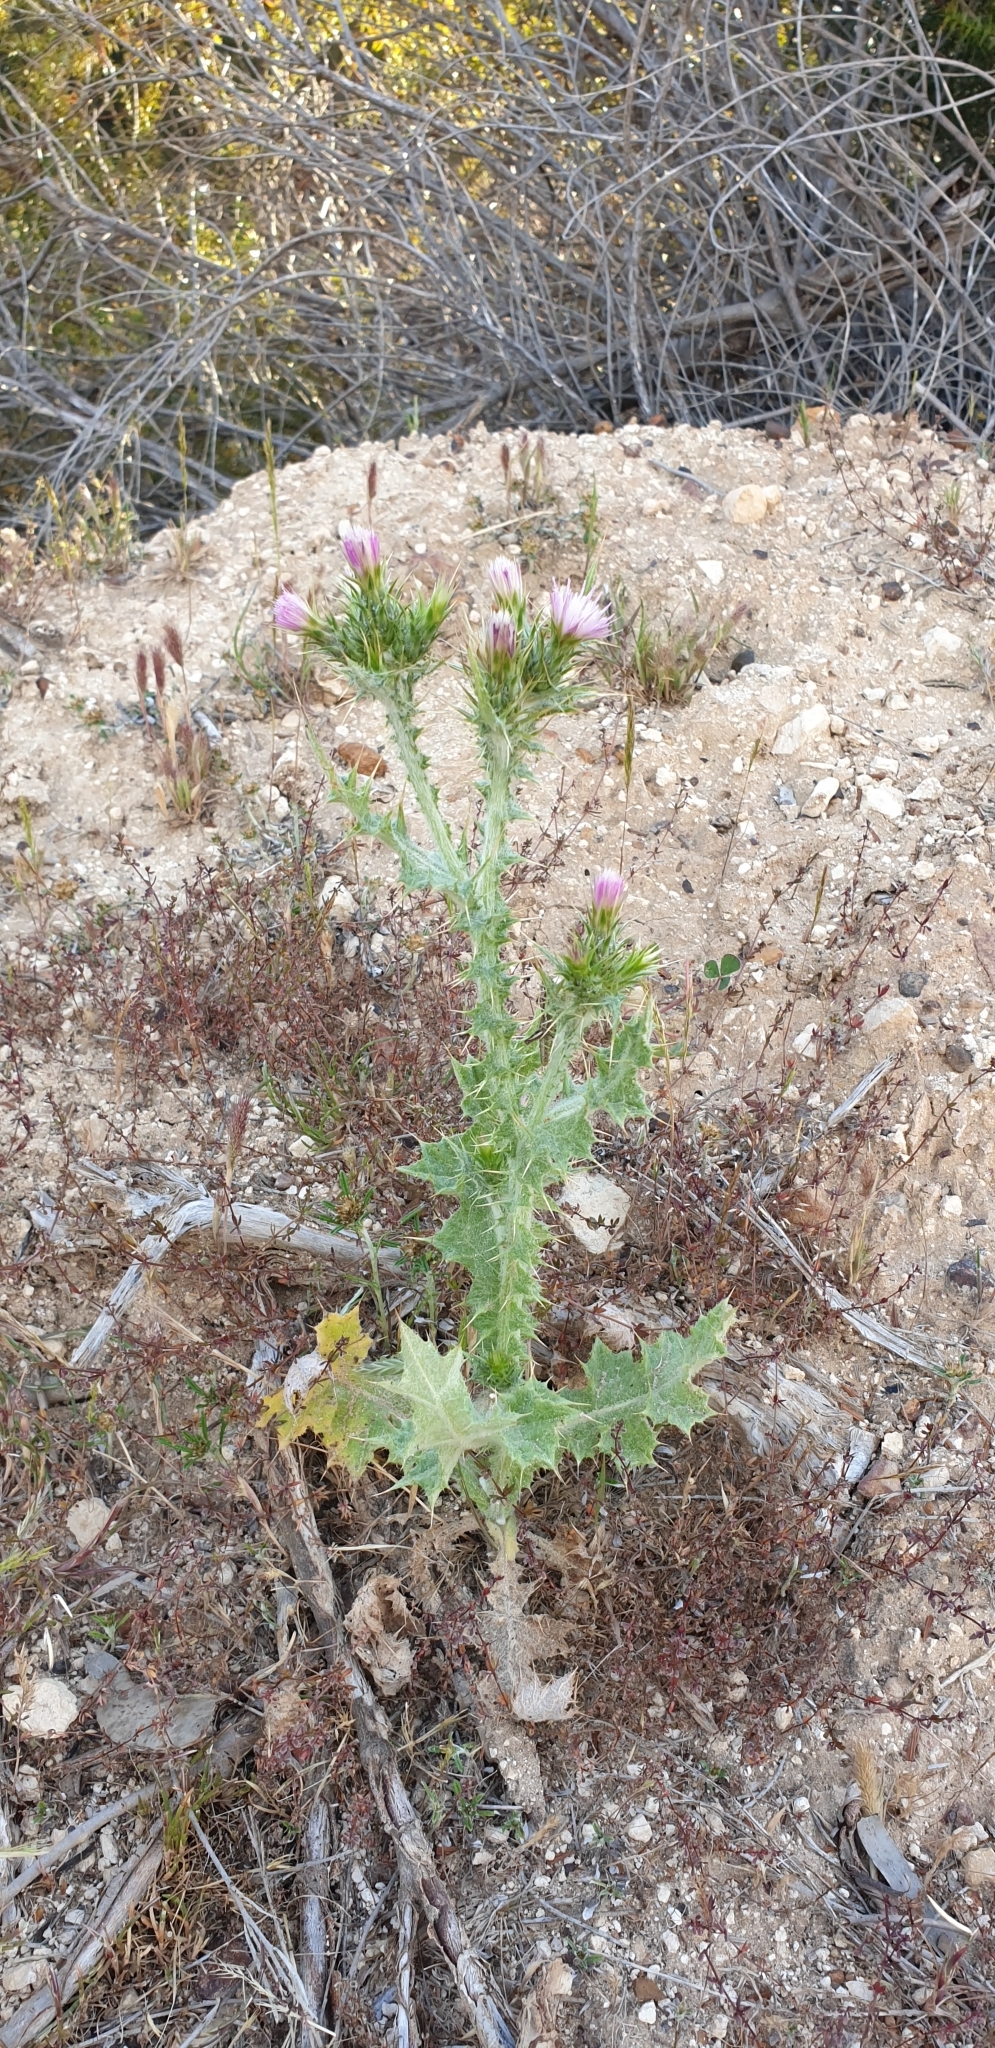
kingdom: Plantae
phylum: Tracheophyta
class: Magnoliopsida
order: Asterales
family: Asteraceae
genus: Carduus
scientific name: Carduus tenuiflorus
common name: Slender thistle
